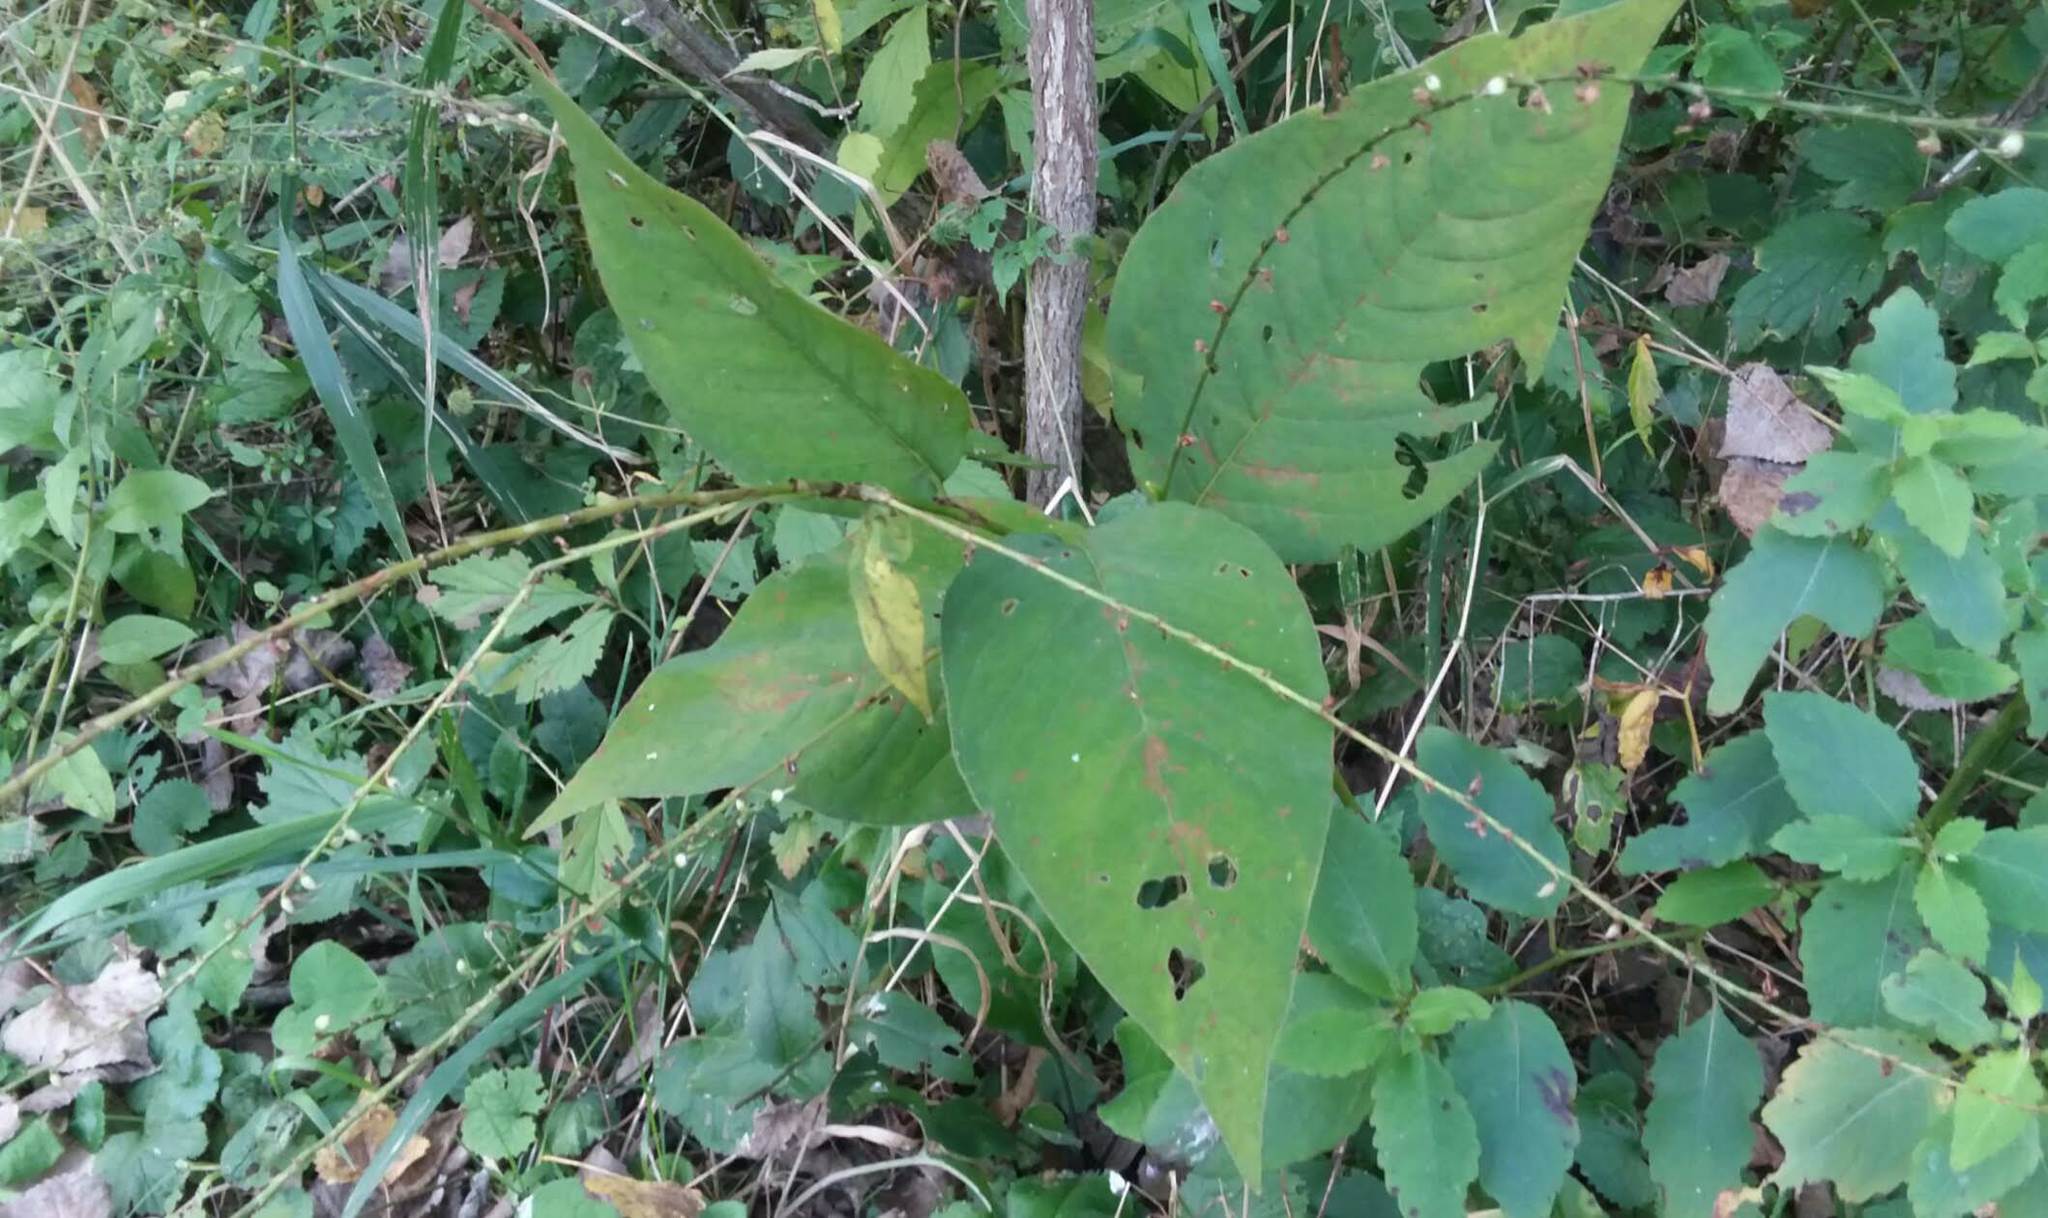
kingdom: Plantae
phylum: Tracheophyta
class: Magnoliopsida
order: Caryophyllales
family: Polygonaceae
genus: Persicaria
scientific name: Persicaria virginiana
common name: Jumpseed
